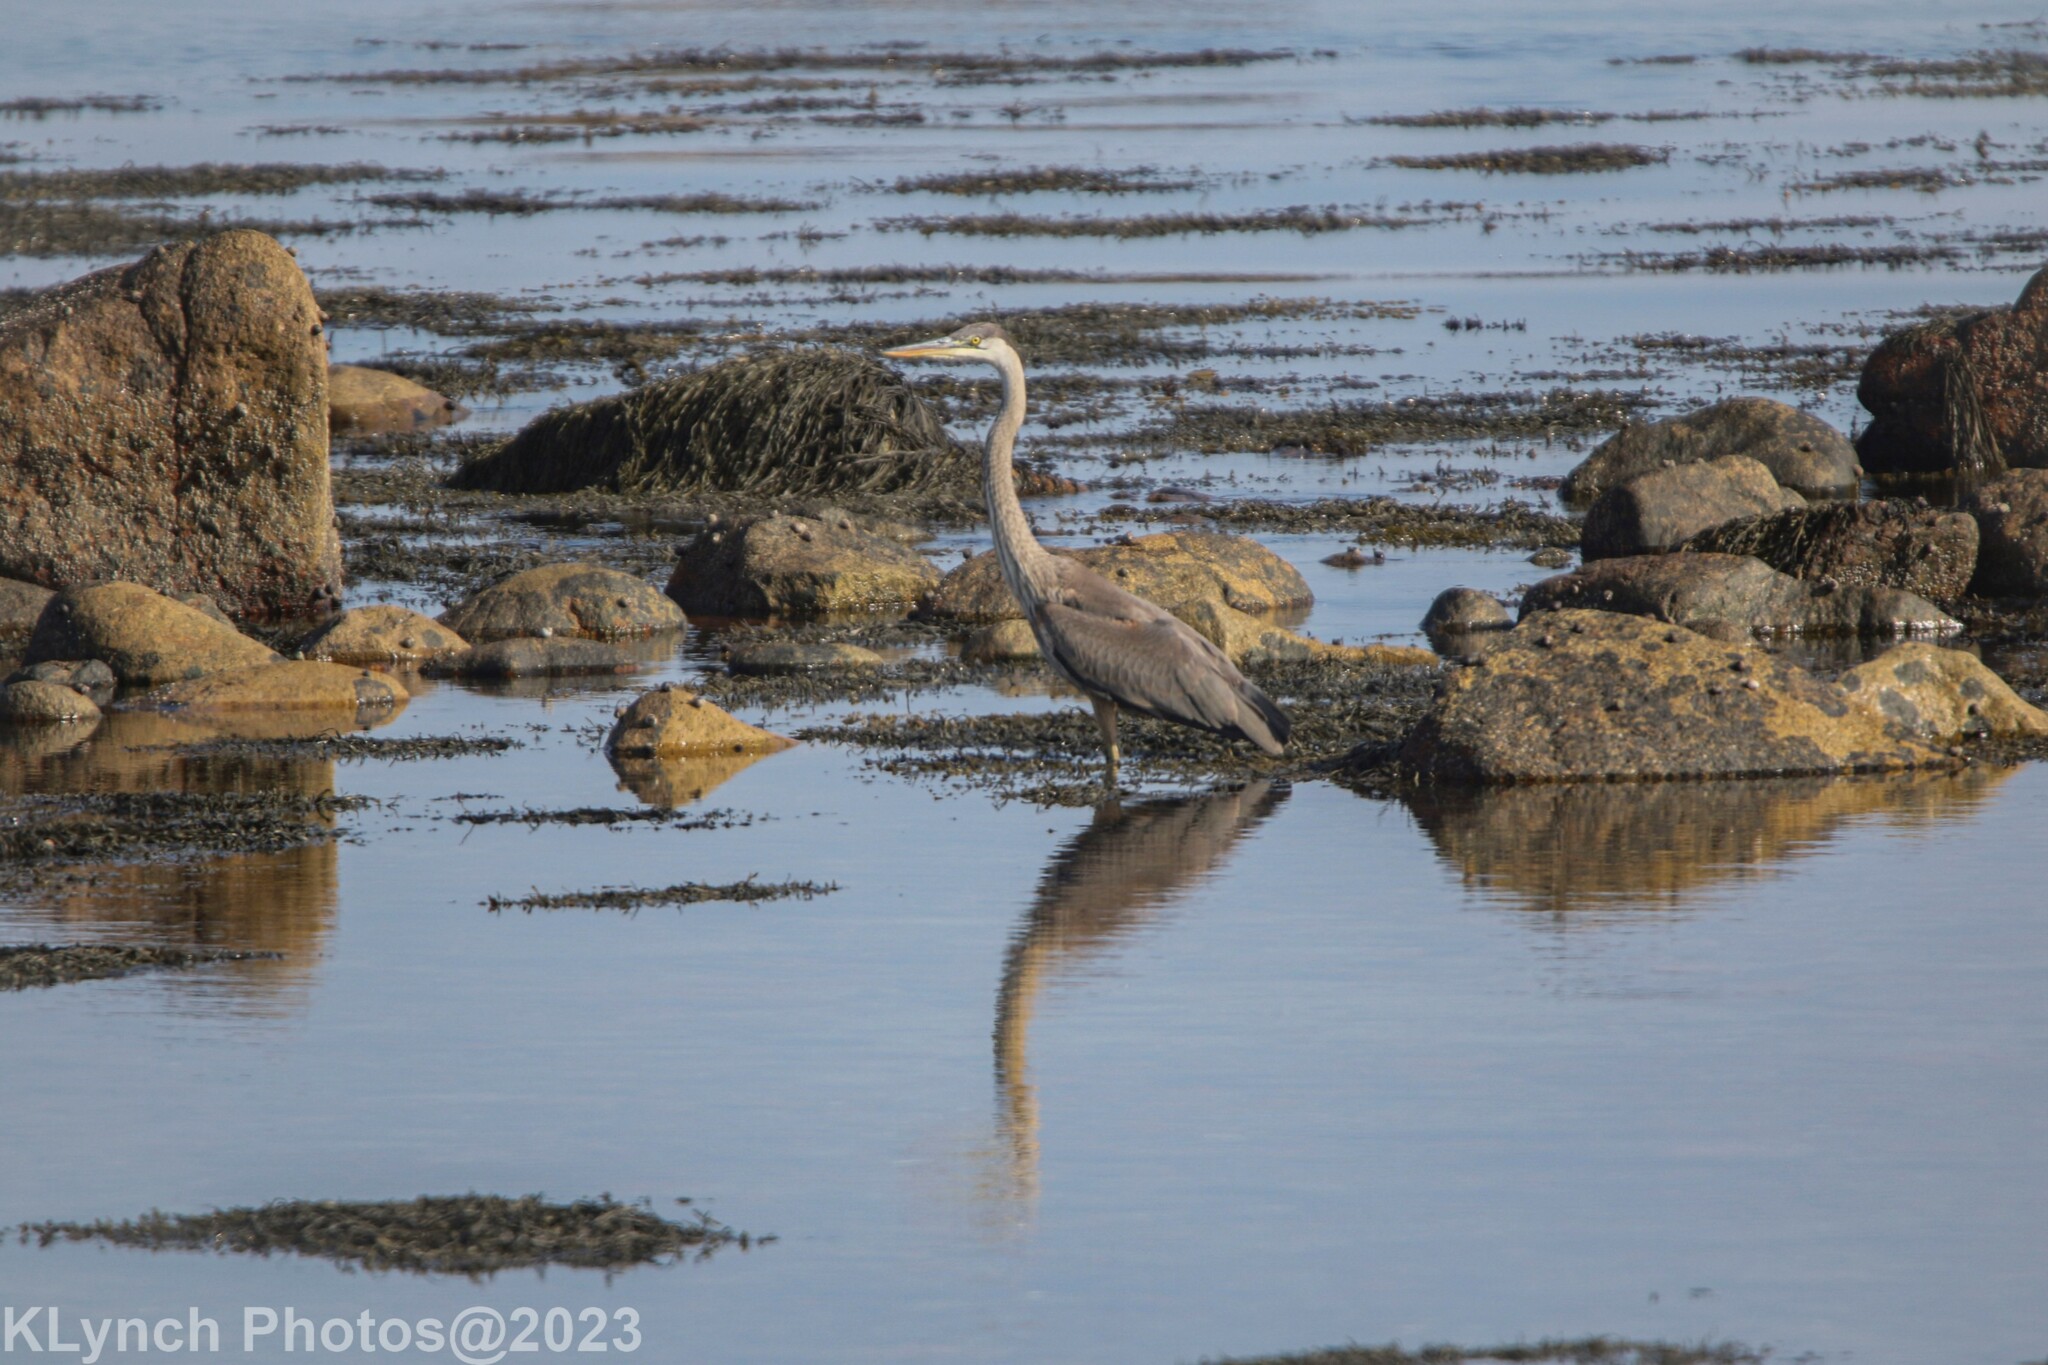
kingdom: Animalia
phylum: Chordata
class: Aves
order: Pelecaniformes
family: Ardeidae
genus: Ardea
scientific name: Ardea herodias
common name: Great blue heron
